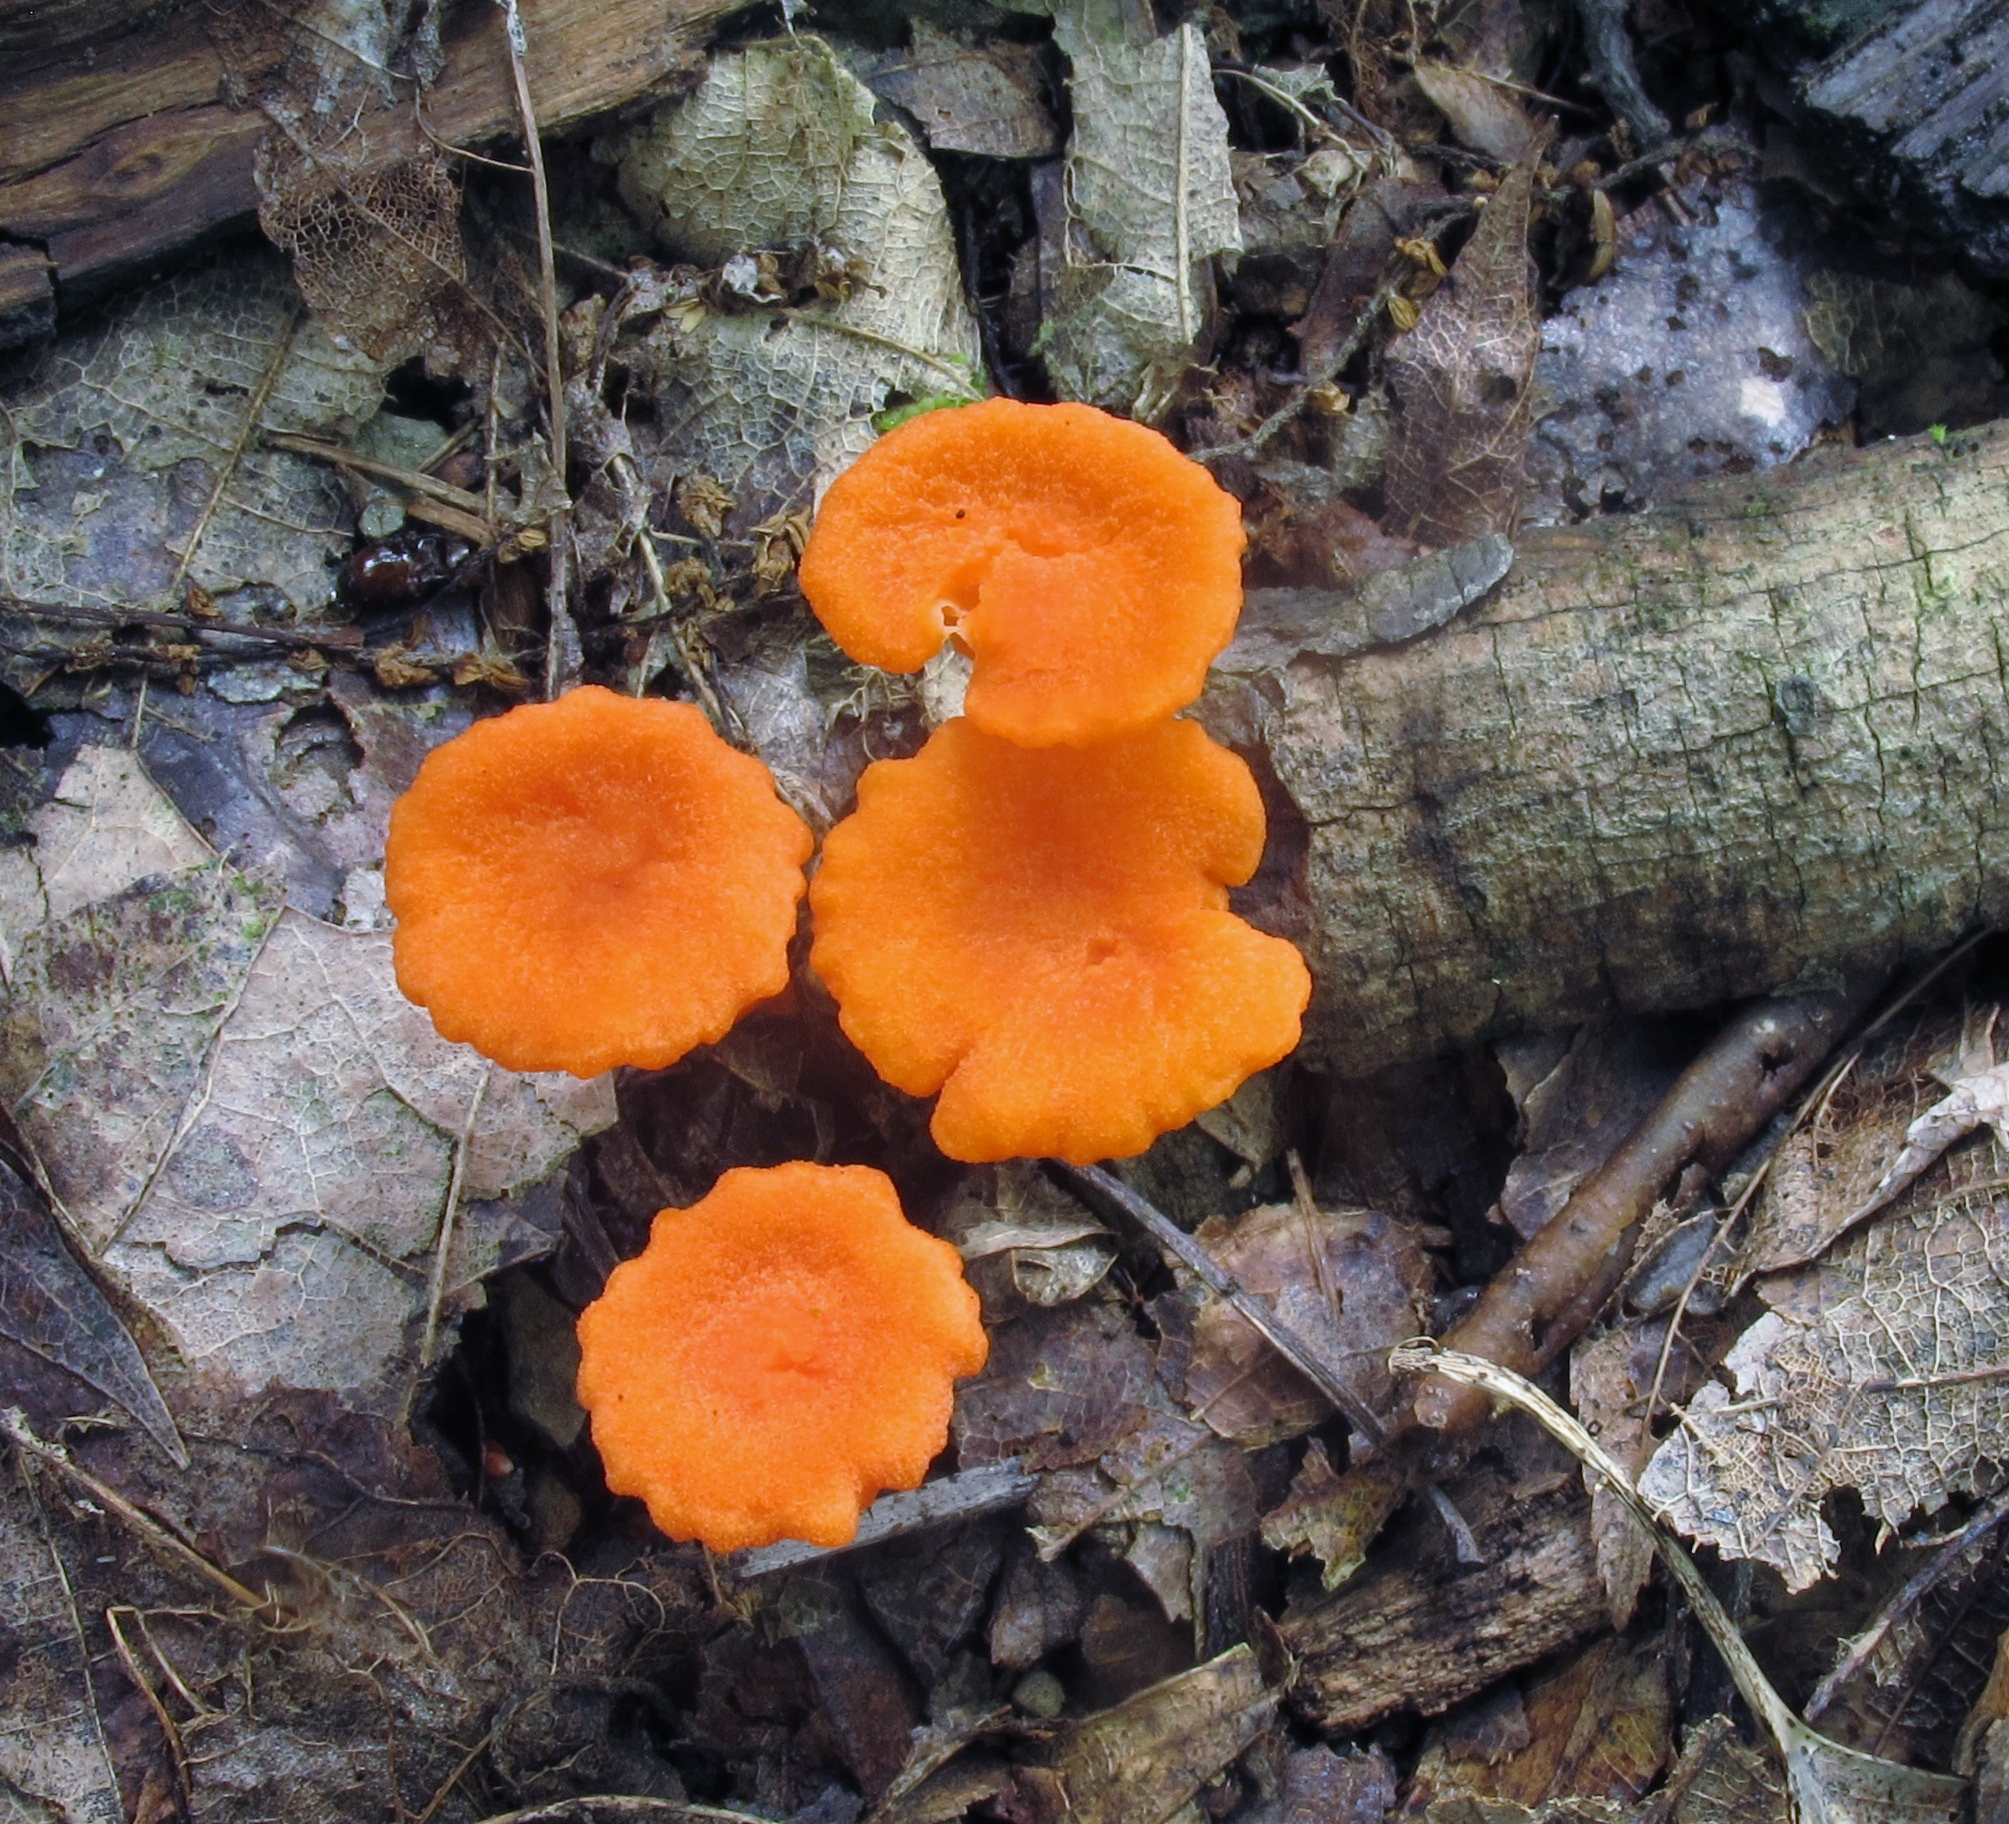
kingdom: Fungi
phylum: Basidiomycota
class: Agaricomycetes
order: Cantharellales
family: Hydnaceae
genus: Cantharellus
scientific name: Cantharellus cinnabarinus
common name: Cinnabar chanterelle
